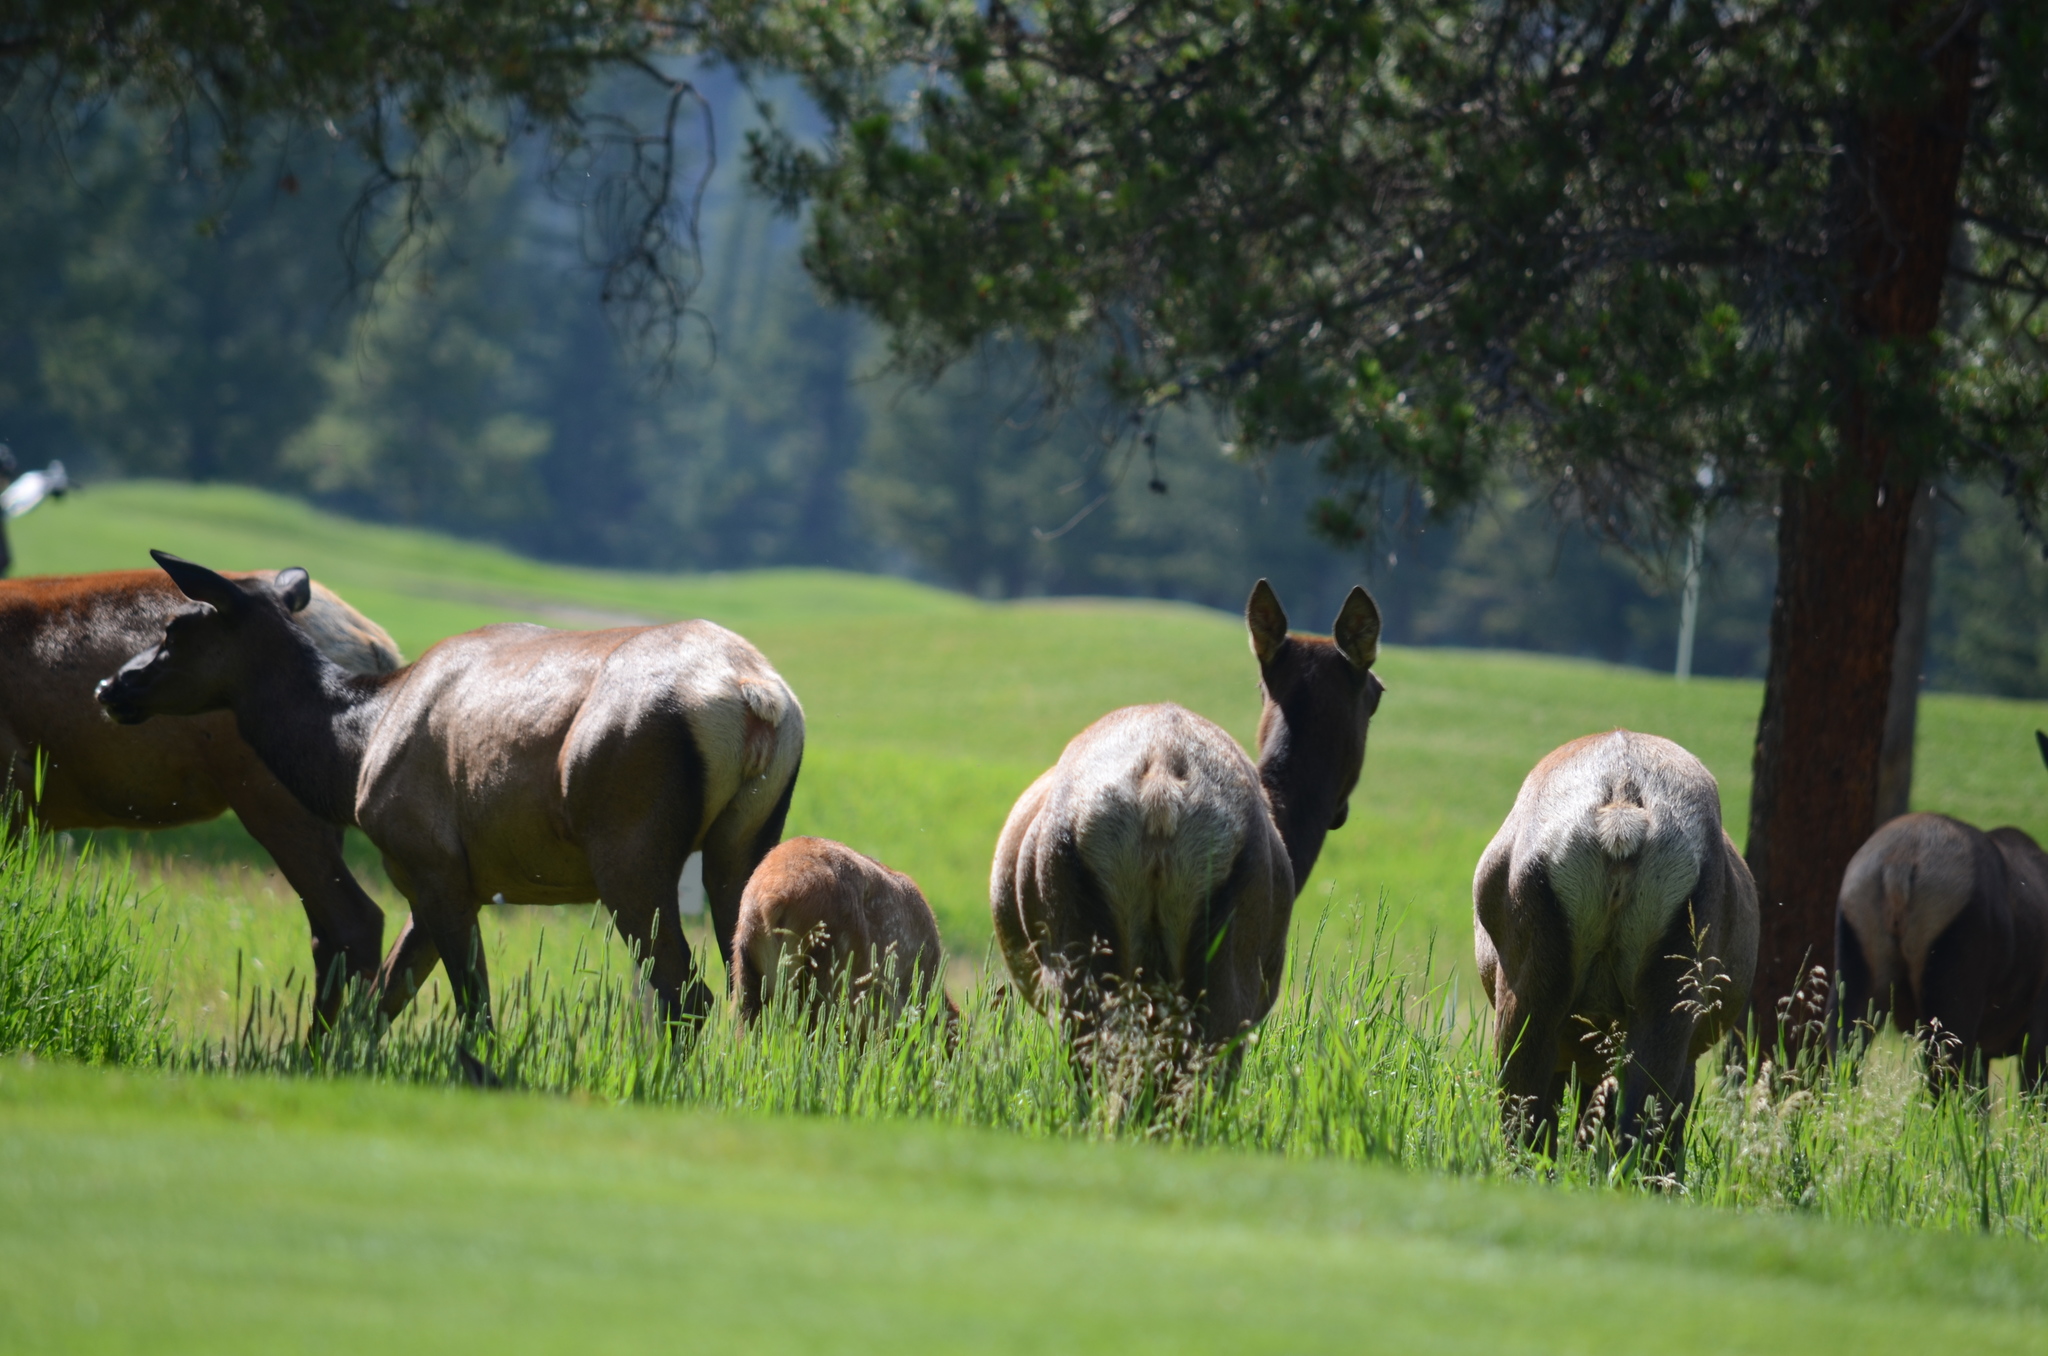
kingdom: Animalia
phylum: Chordata
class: Mammalia
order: Artiodactyla
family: Cervidae
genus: Cervus
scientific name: Cervus elaphus
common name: Red deer
